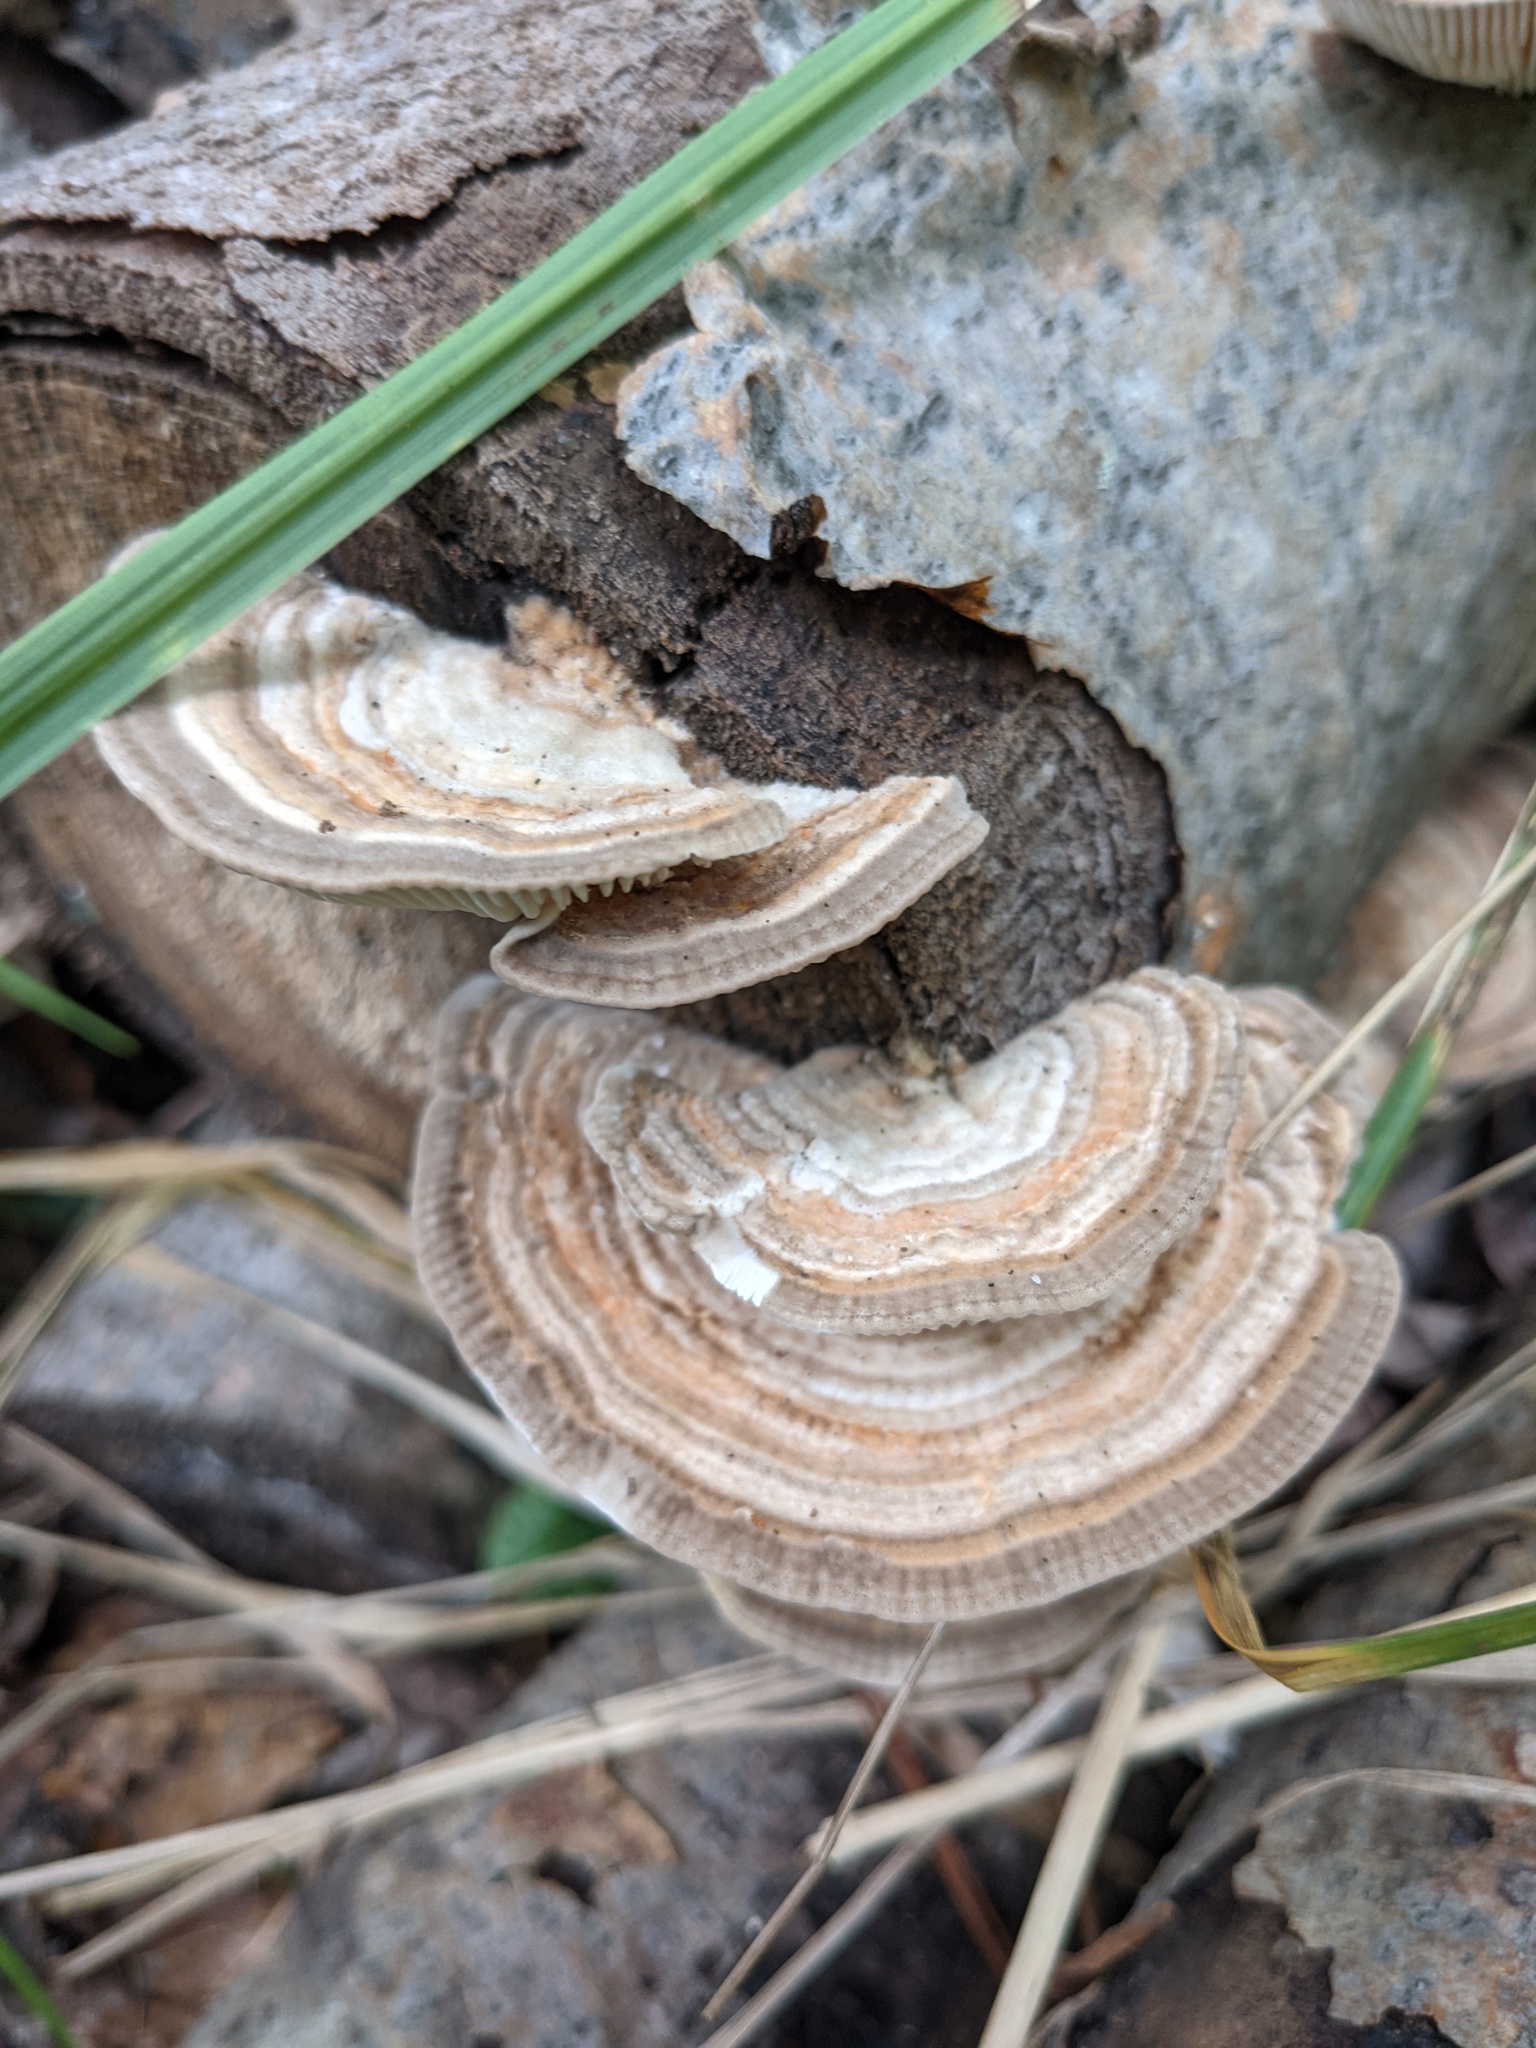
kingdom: Fungi
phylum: Basidiomycota
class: Agaricomycetes
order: Polyporales
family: Polyporaceae
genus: Lenzites
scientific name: Lenzites betulinus
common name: Birch mazegill
